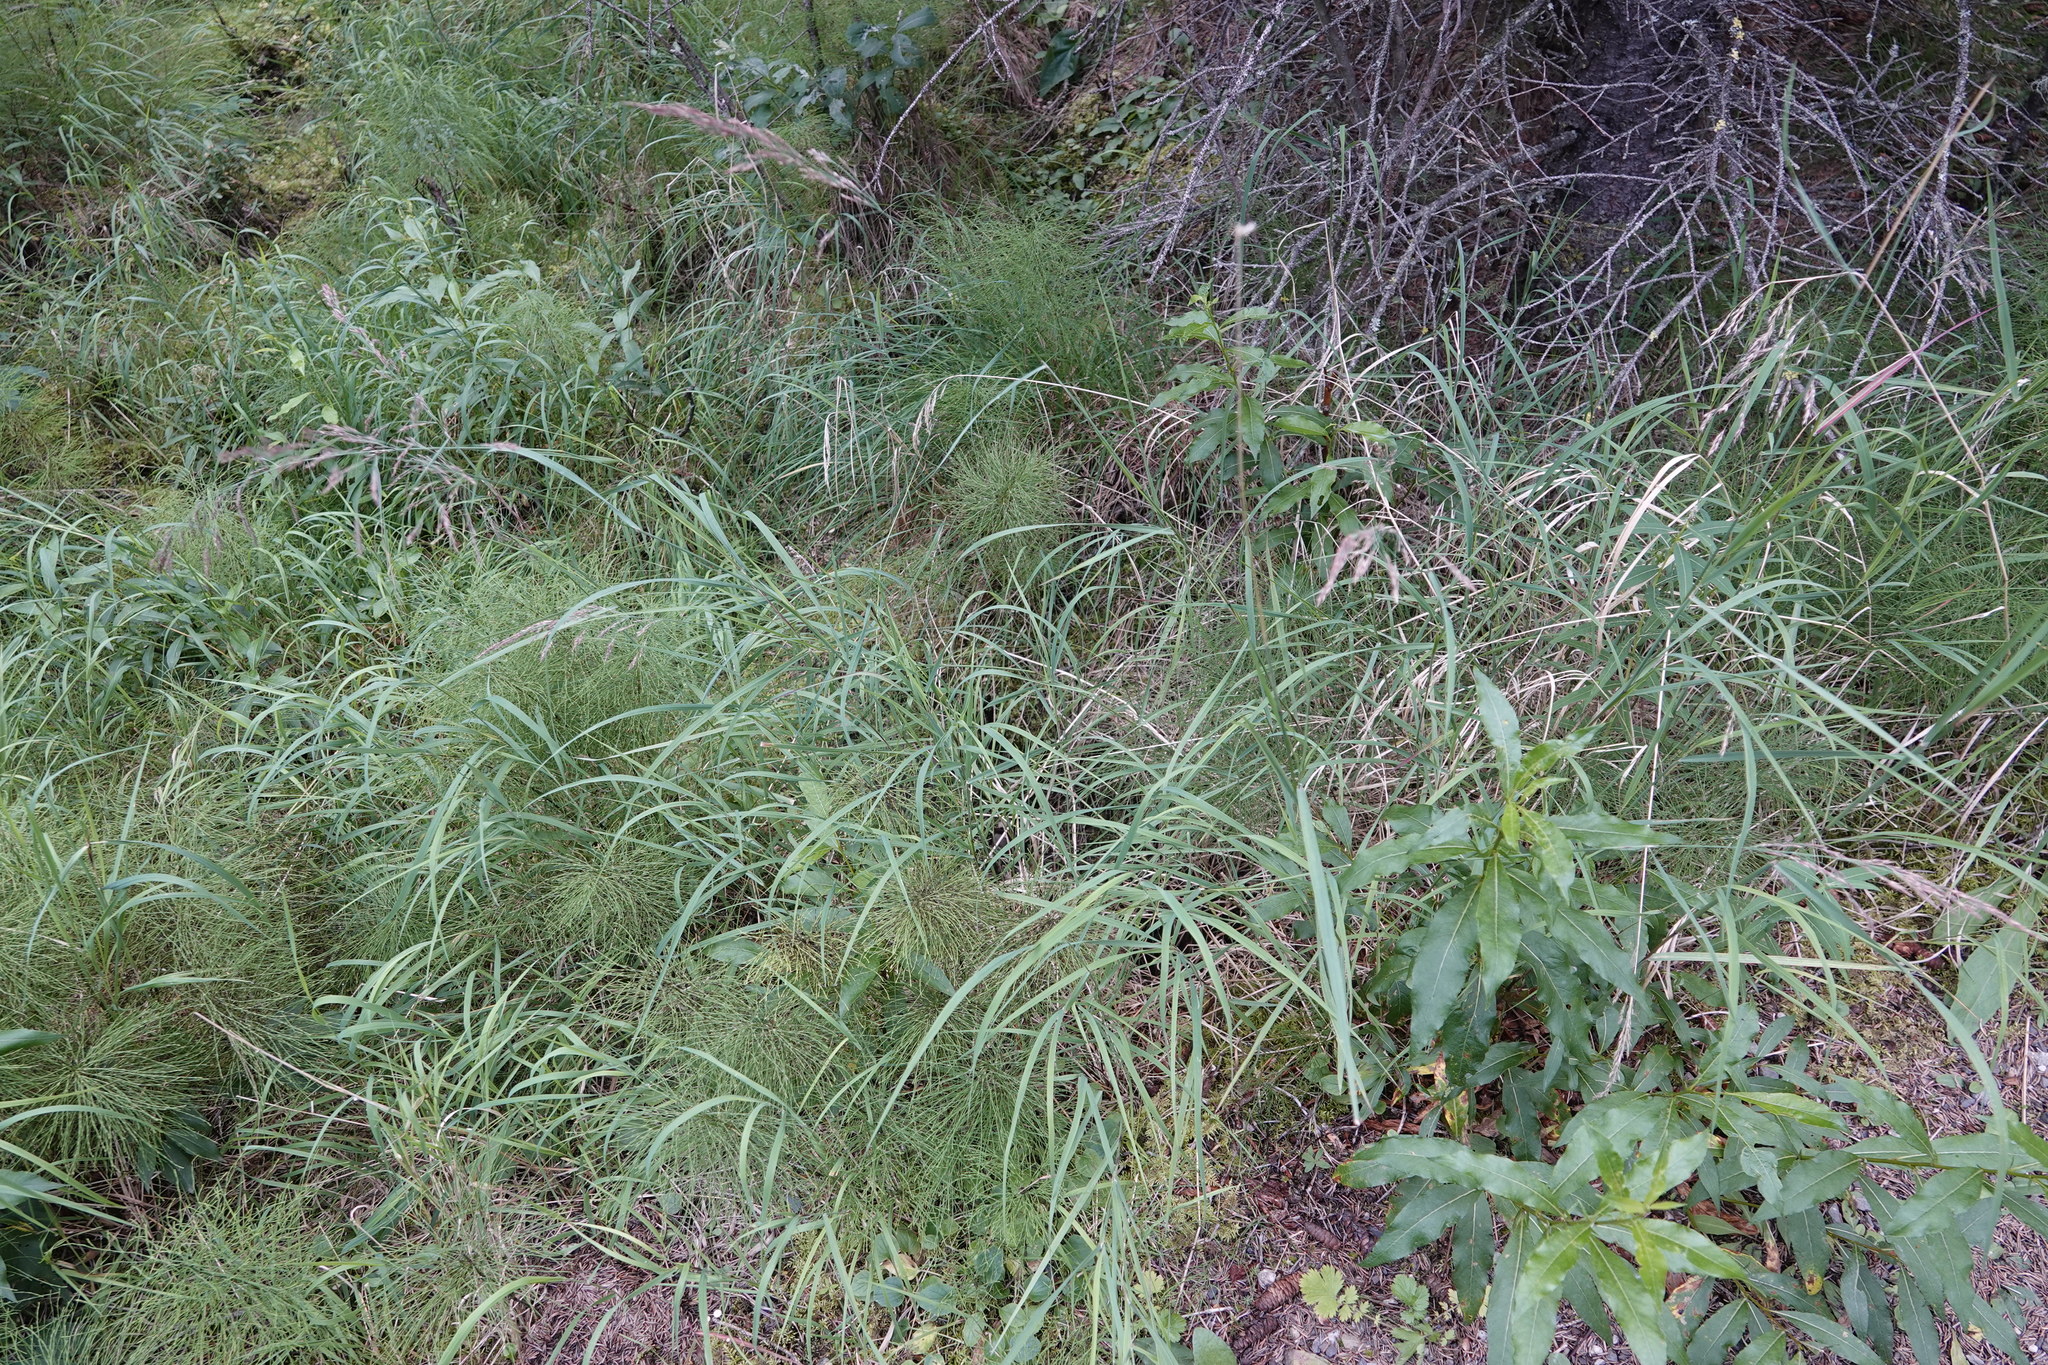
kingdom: Plantae
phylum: Tracheophyta
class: Polypodiopsida
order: Equisetales
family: Equisetaceae
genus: Equisetum
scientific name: Equisetum sylvaticum
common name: Wood horsetail
